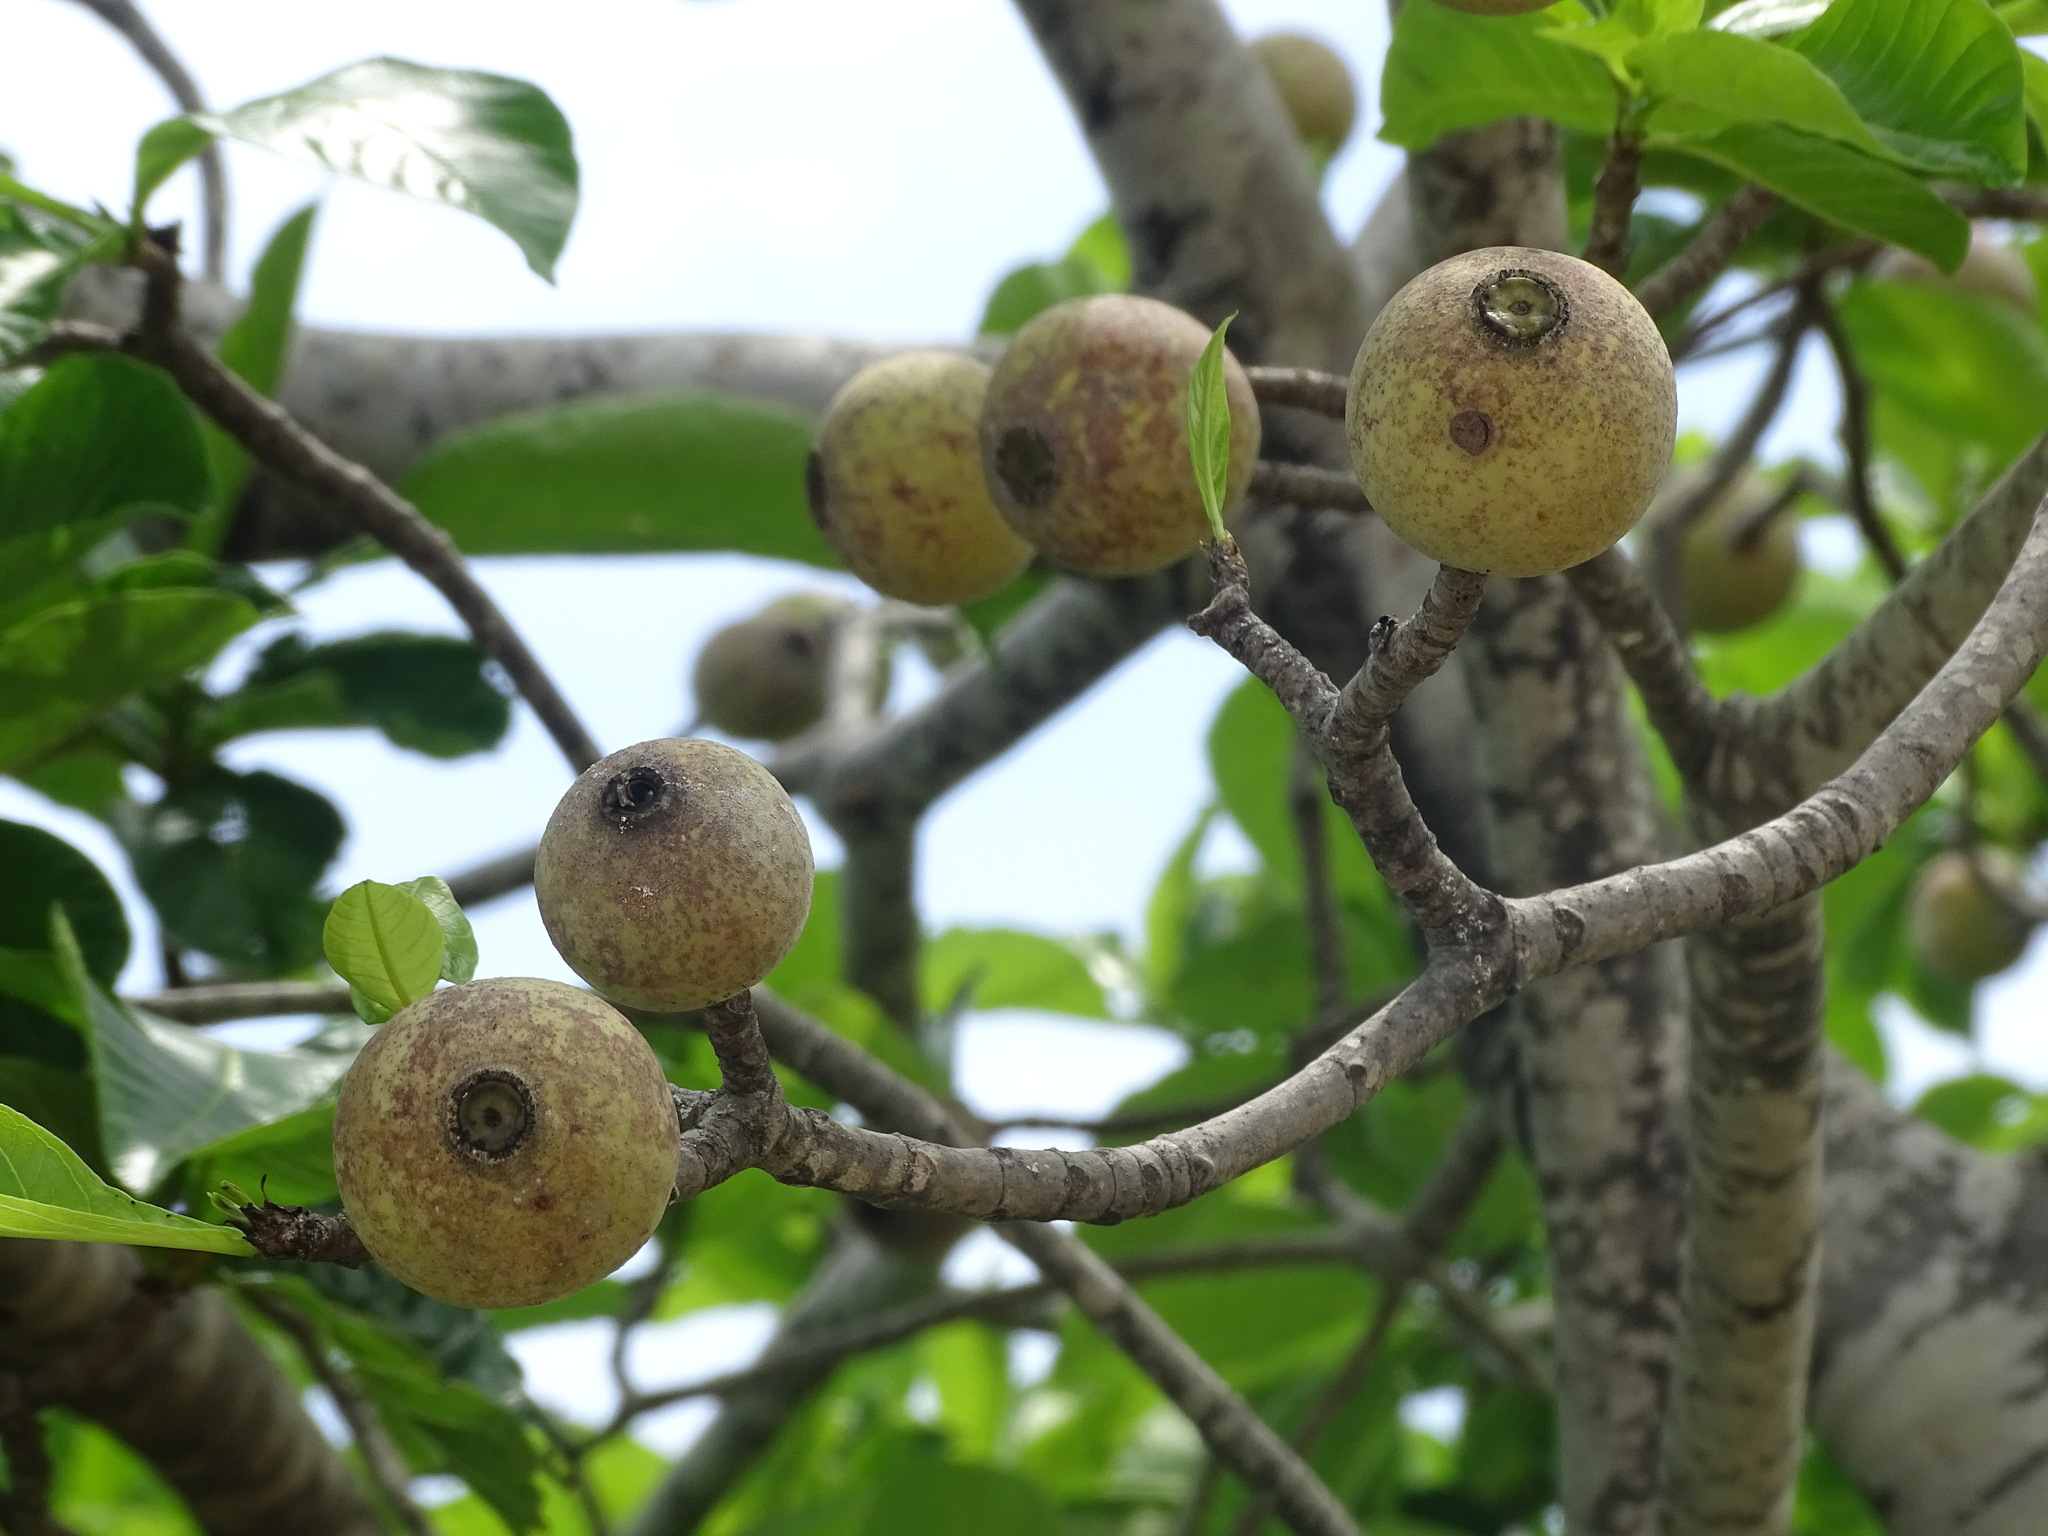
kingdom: Plantae
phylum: Tracheophyta
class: Magnoliopsida
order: Gentianales
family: Rubiaceae
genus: Genipa
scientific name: Genipa americana
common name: Genipap
